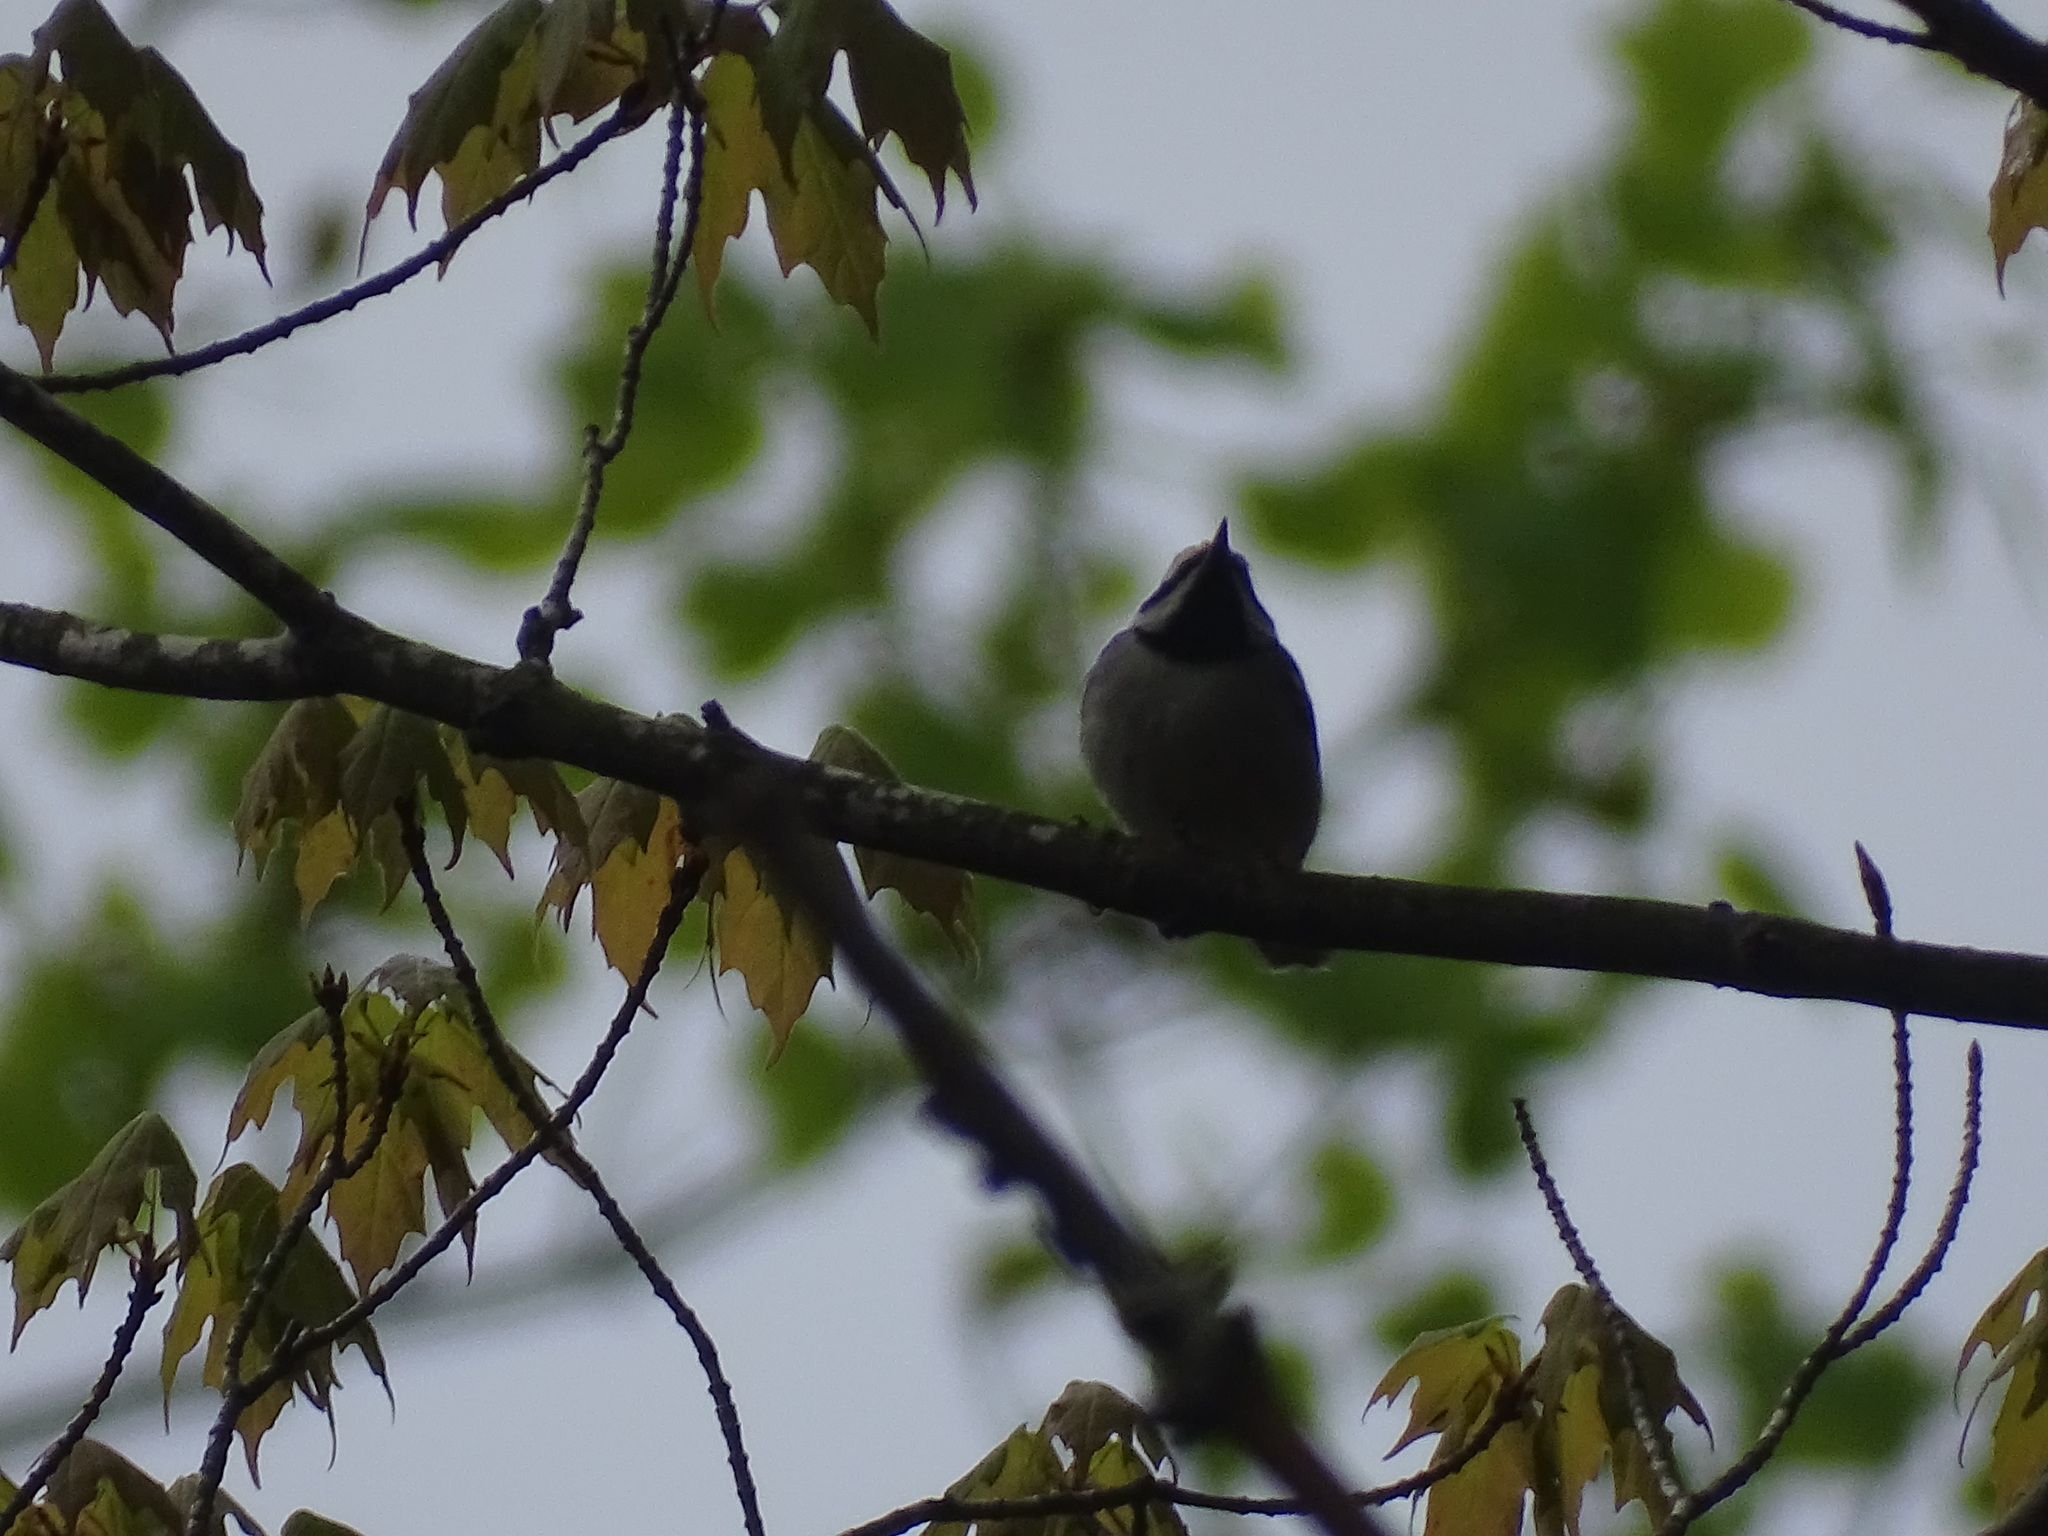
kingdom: Animalia
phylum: Chordata
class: Aves
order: Passeriformes
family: Parulidae
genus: Vermivora
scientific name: Vermivora chrysoptera
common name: Golden-winged warbler
